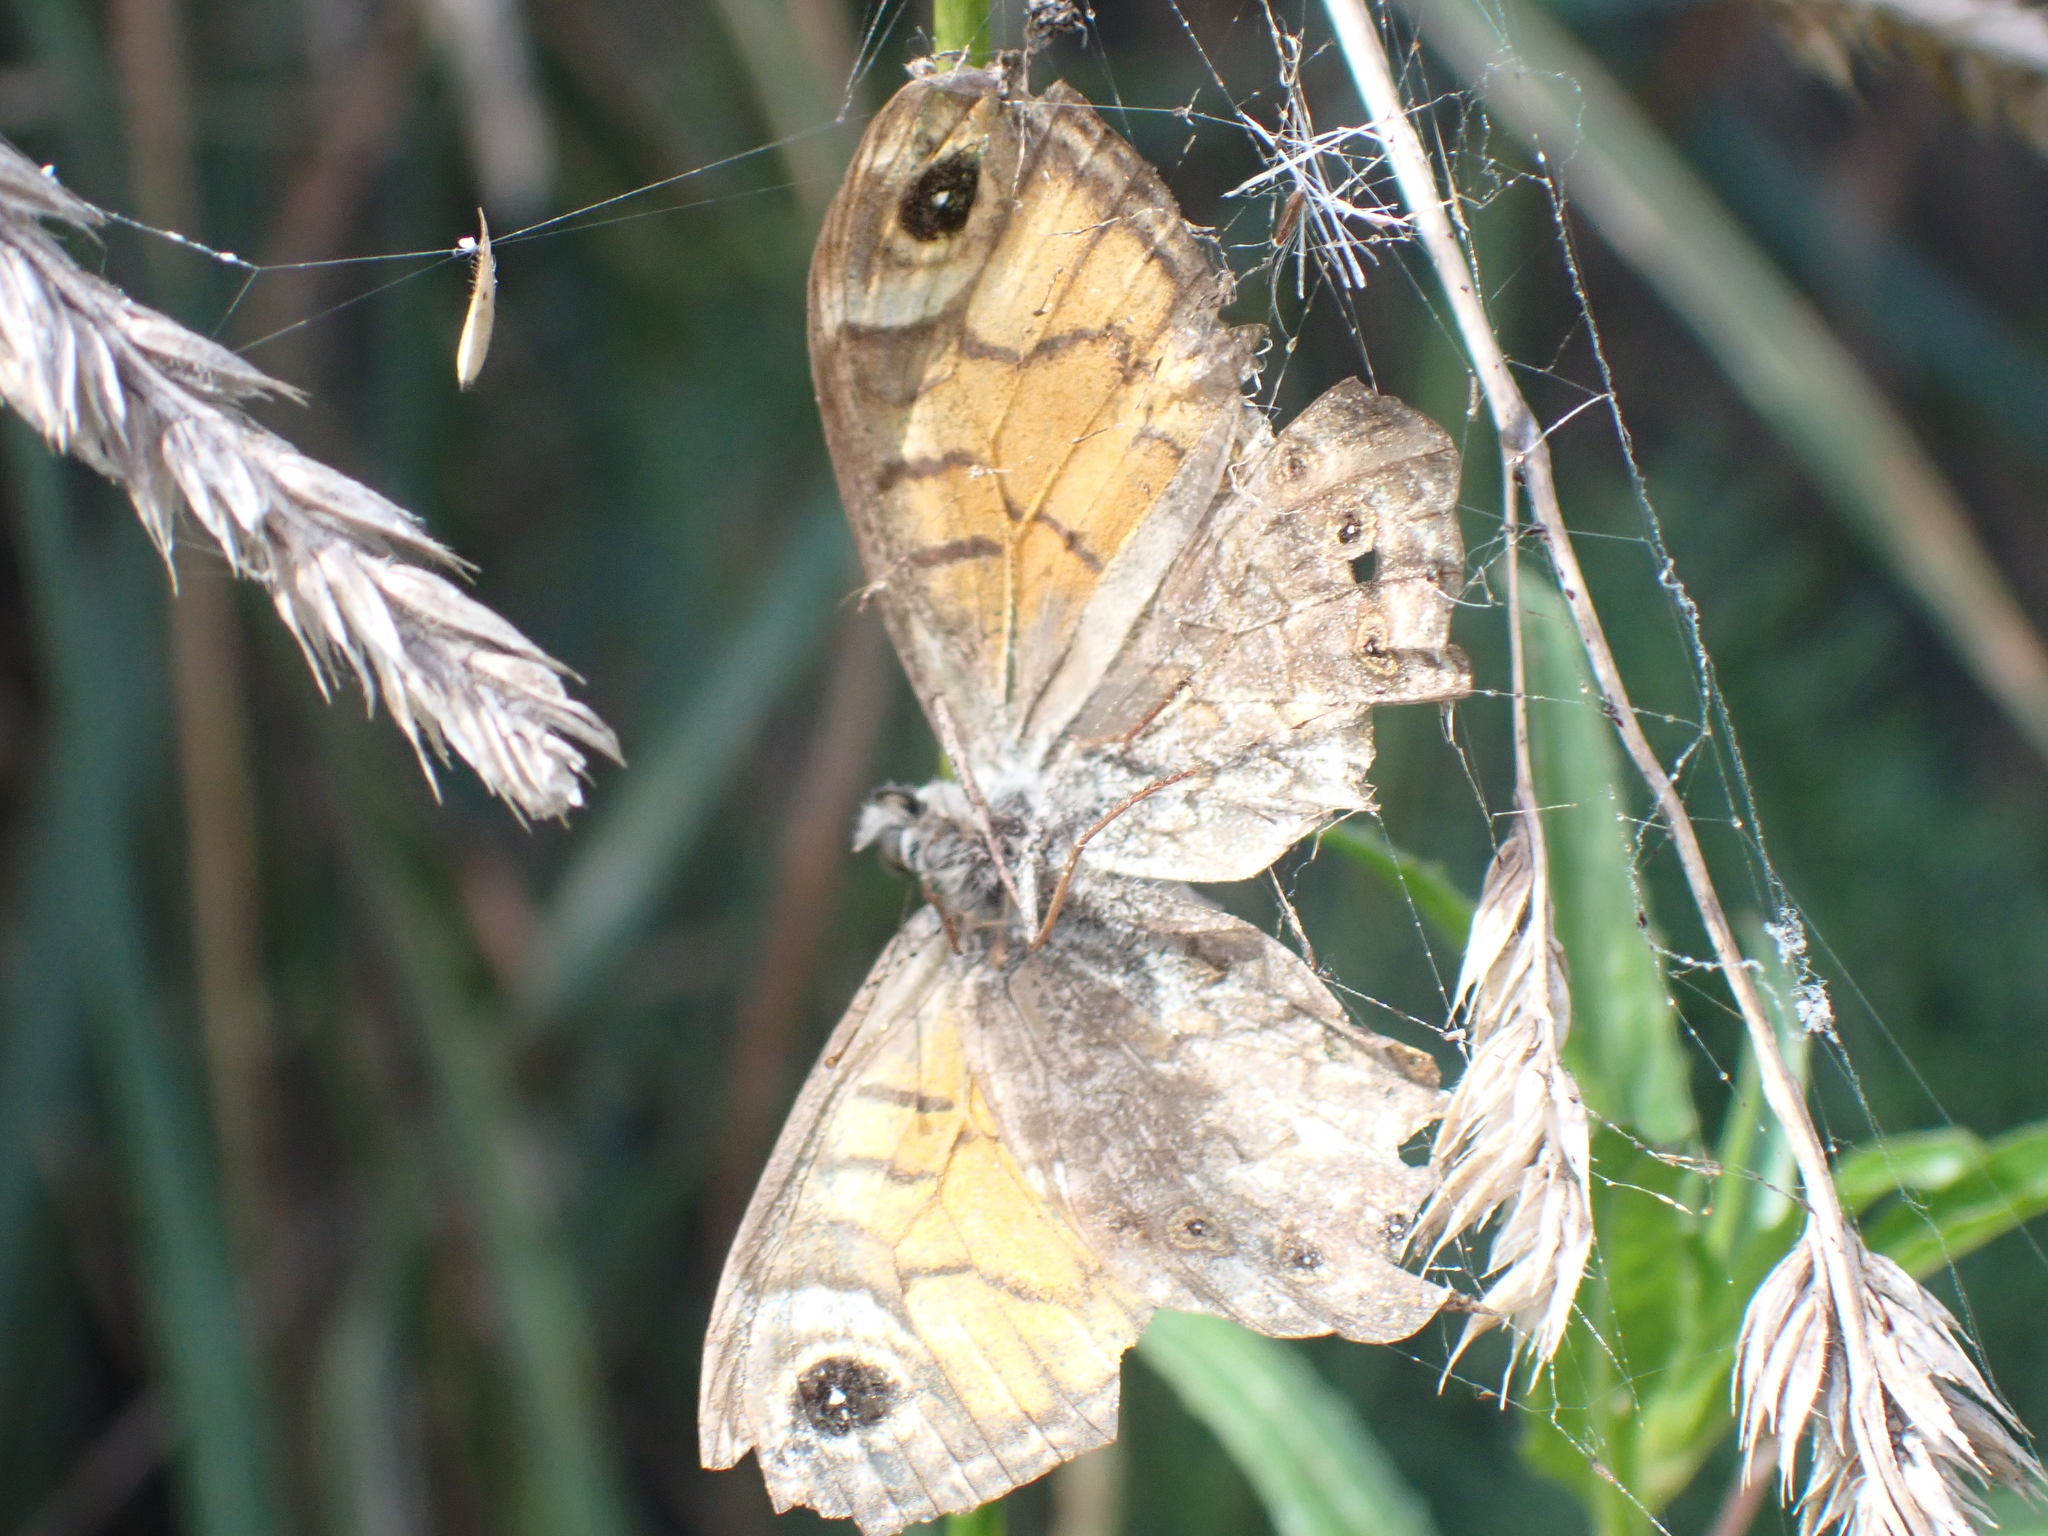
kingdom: Animalia
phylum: Arthropoda
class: Insecta
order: Lepidoptera
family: Nymphalidae
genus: Pararge
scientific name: Pararge Lasiommata megera
